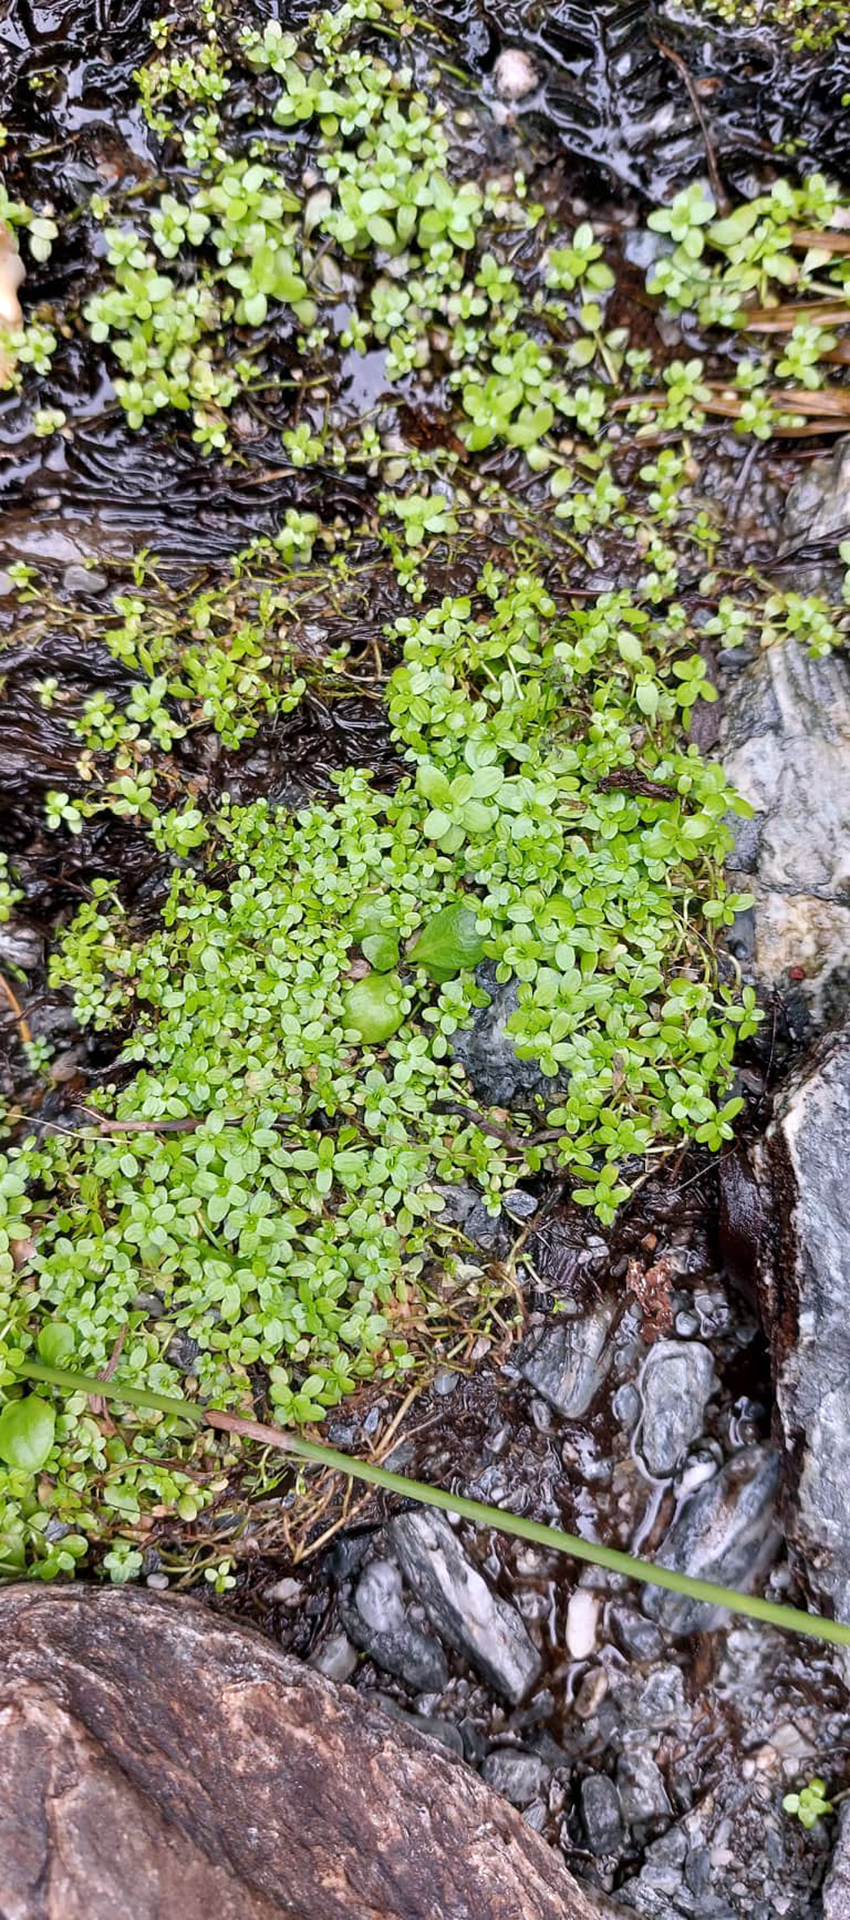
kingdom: Plantae
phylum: Tracheophyta
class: Magnoliopsida
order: Lamiales
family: Plantaginaceae
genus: Callitriche
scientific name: Callitriche stagnalis
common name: Common water-starwort
